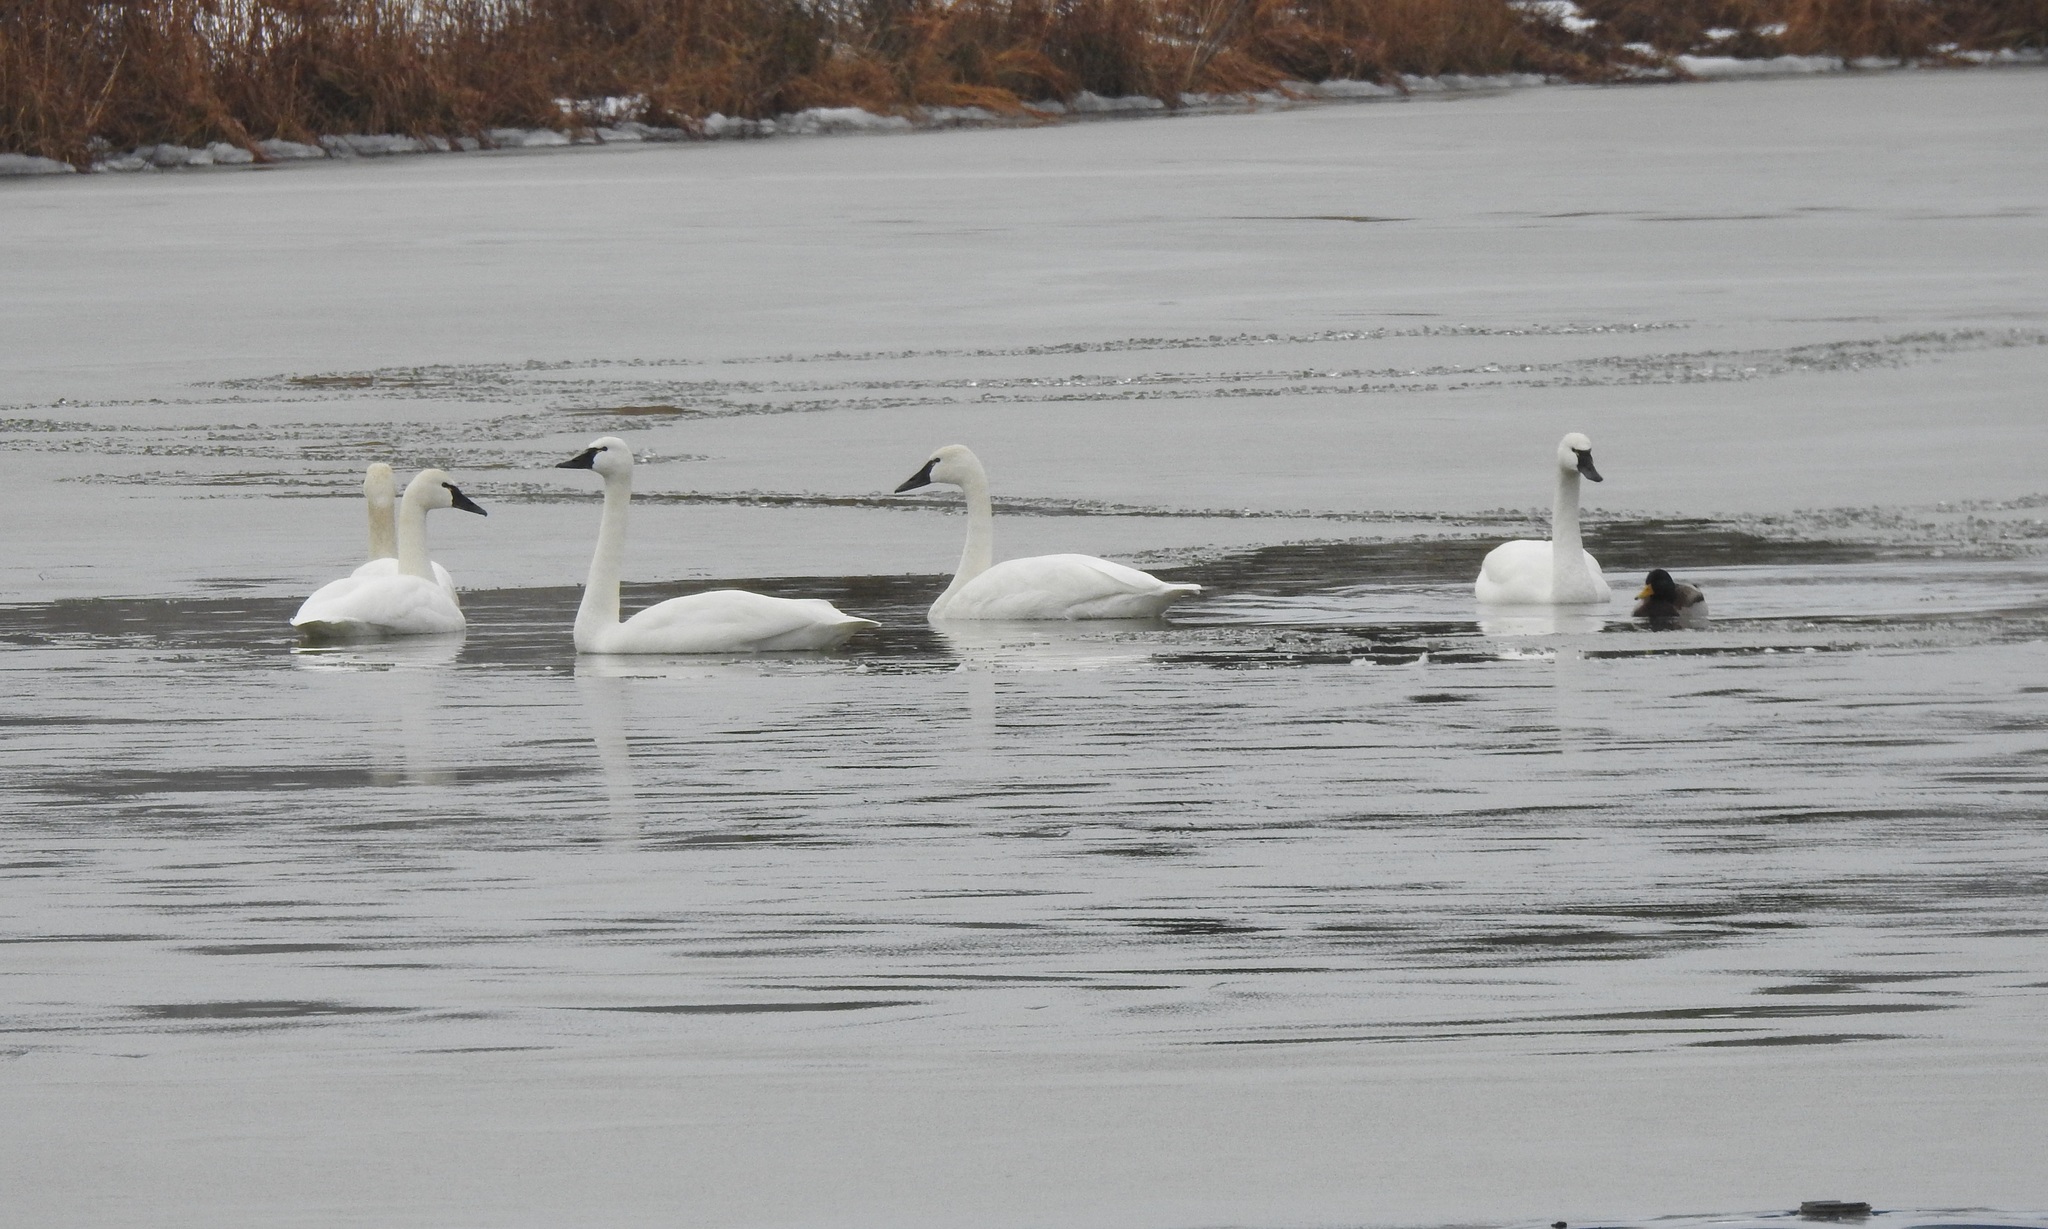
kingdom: Animalia
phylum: Chordata
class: Aves
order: Anseriformes
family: Anatidae
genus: Cygnus
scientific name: Cygnus columbianus
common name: Tundra swan
